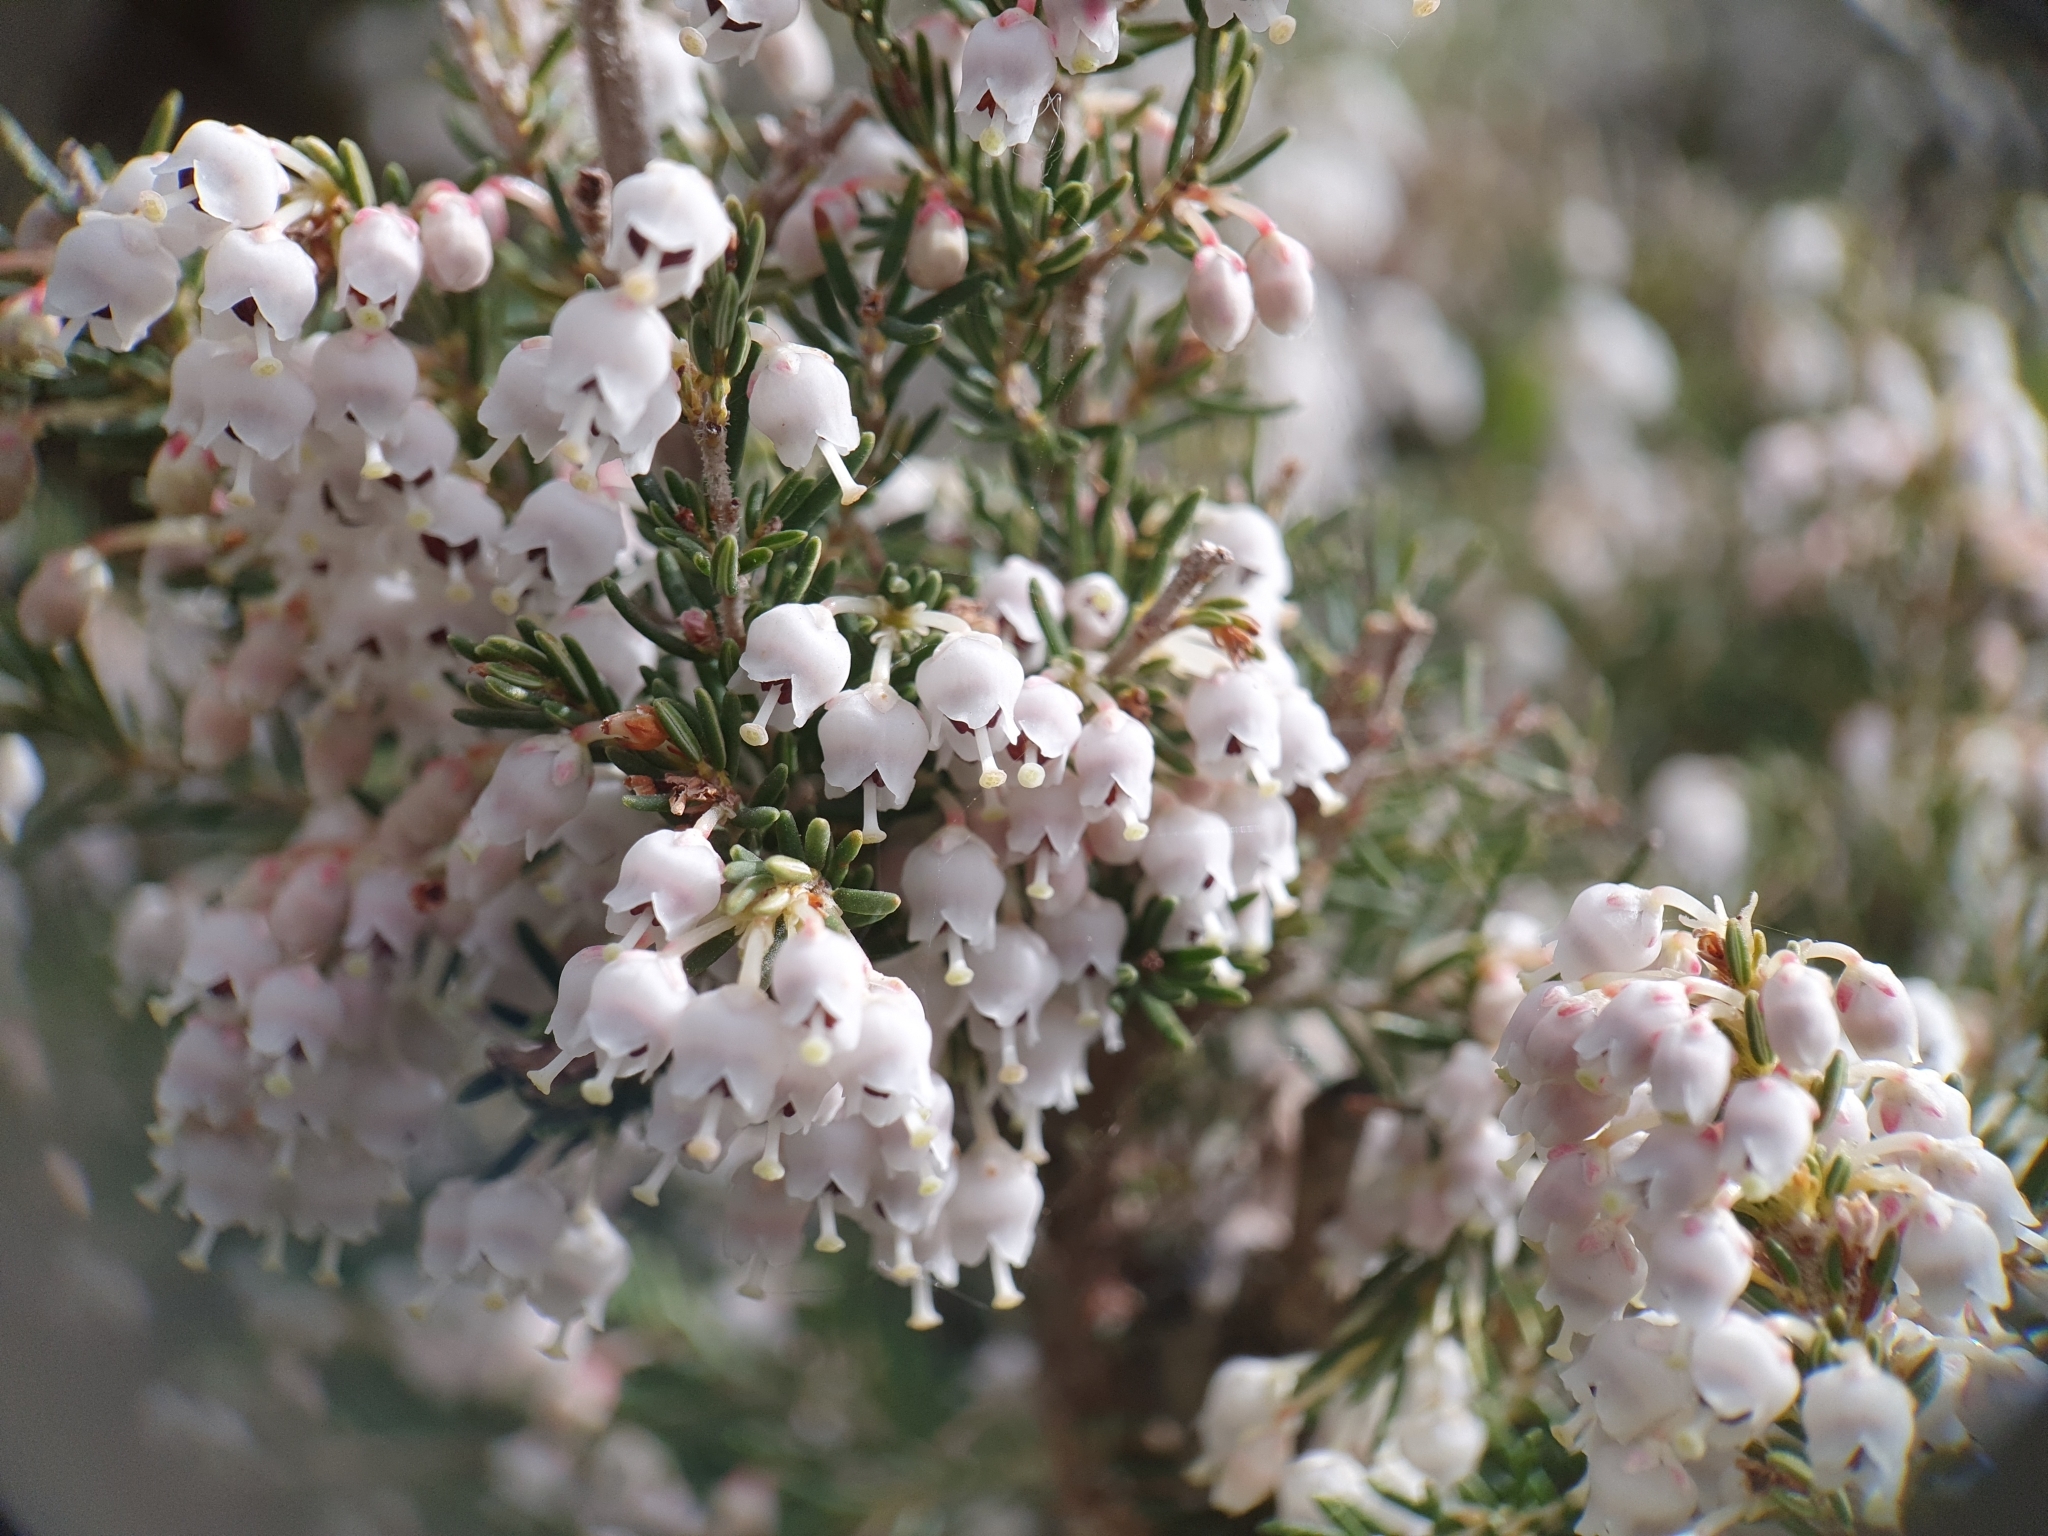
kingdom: Plantae
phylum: Tracheophyta
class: Magnoliopsida
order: Ericales
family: Ericaceae
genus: Erica
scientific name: Erica arborea
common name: Tree heath
